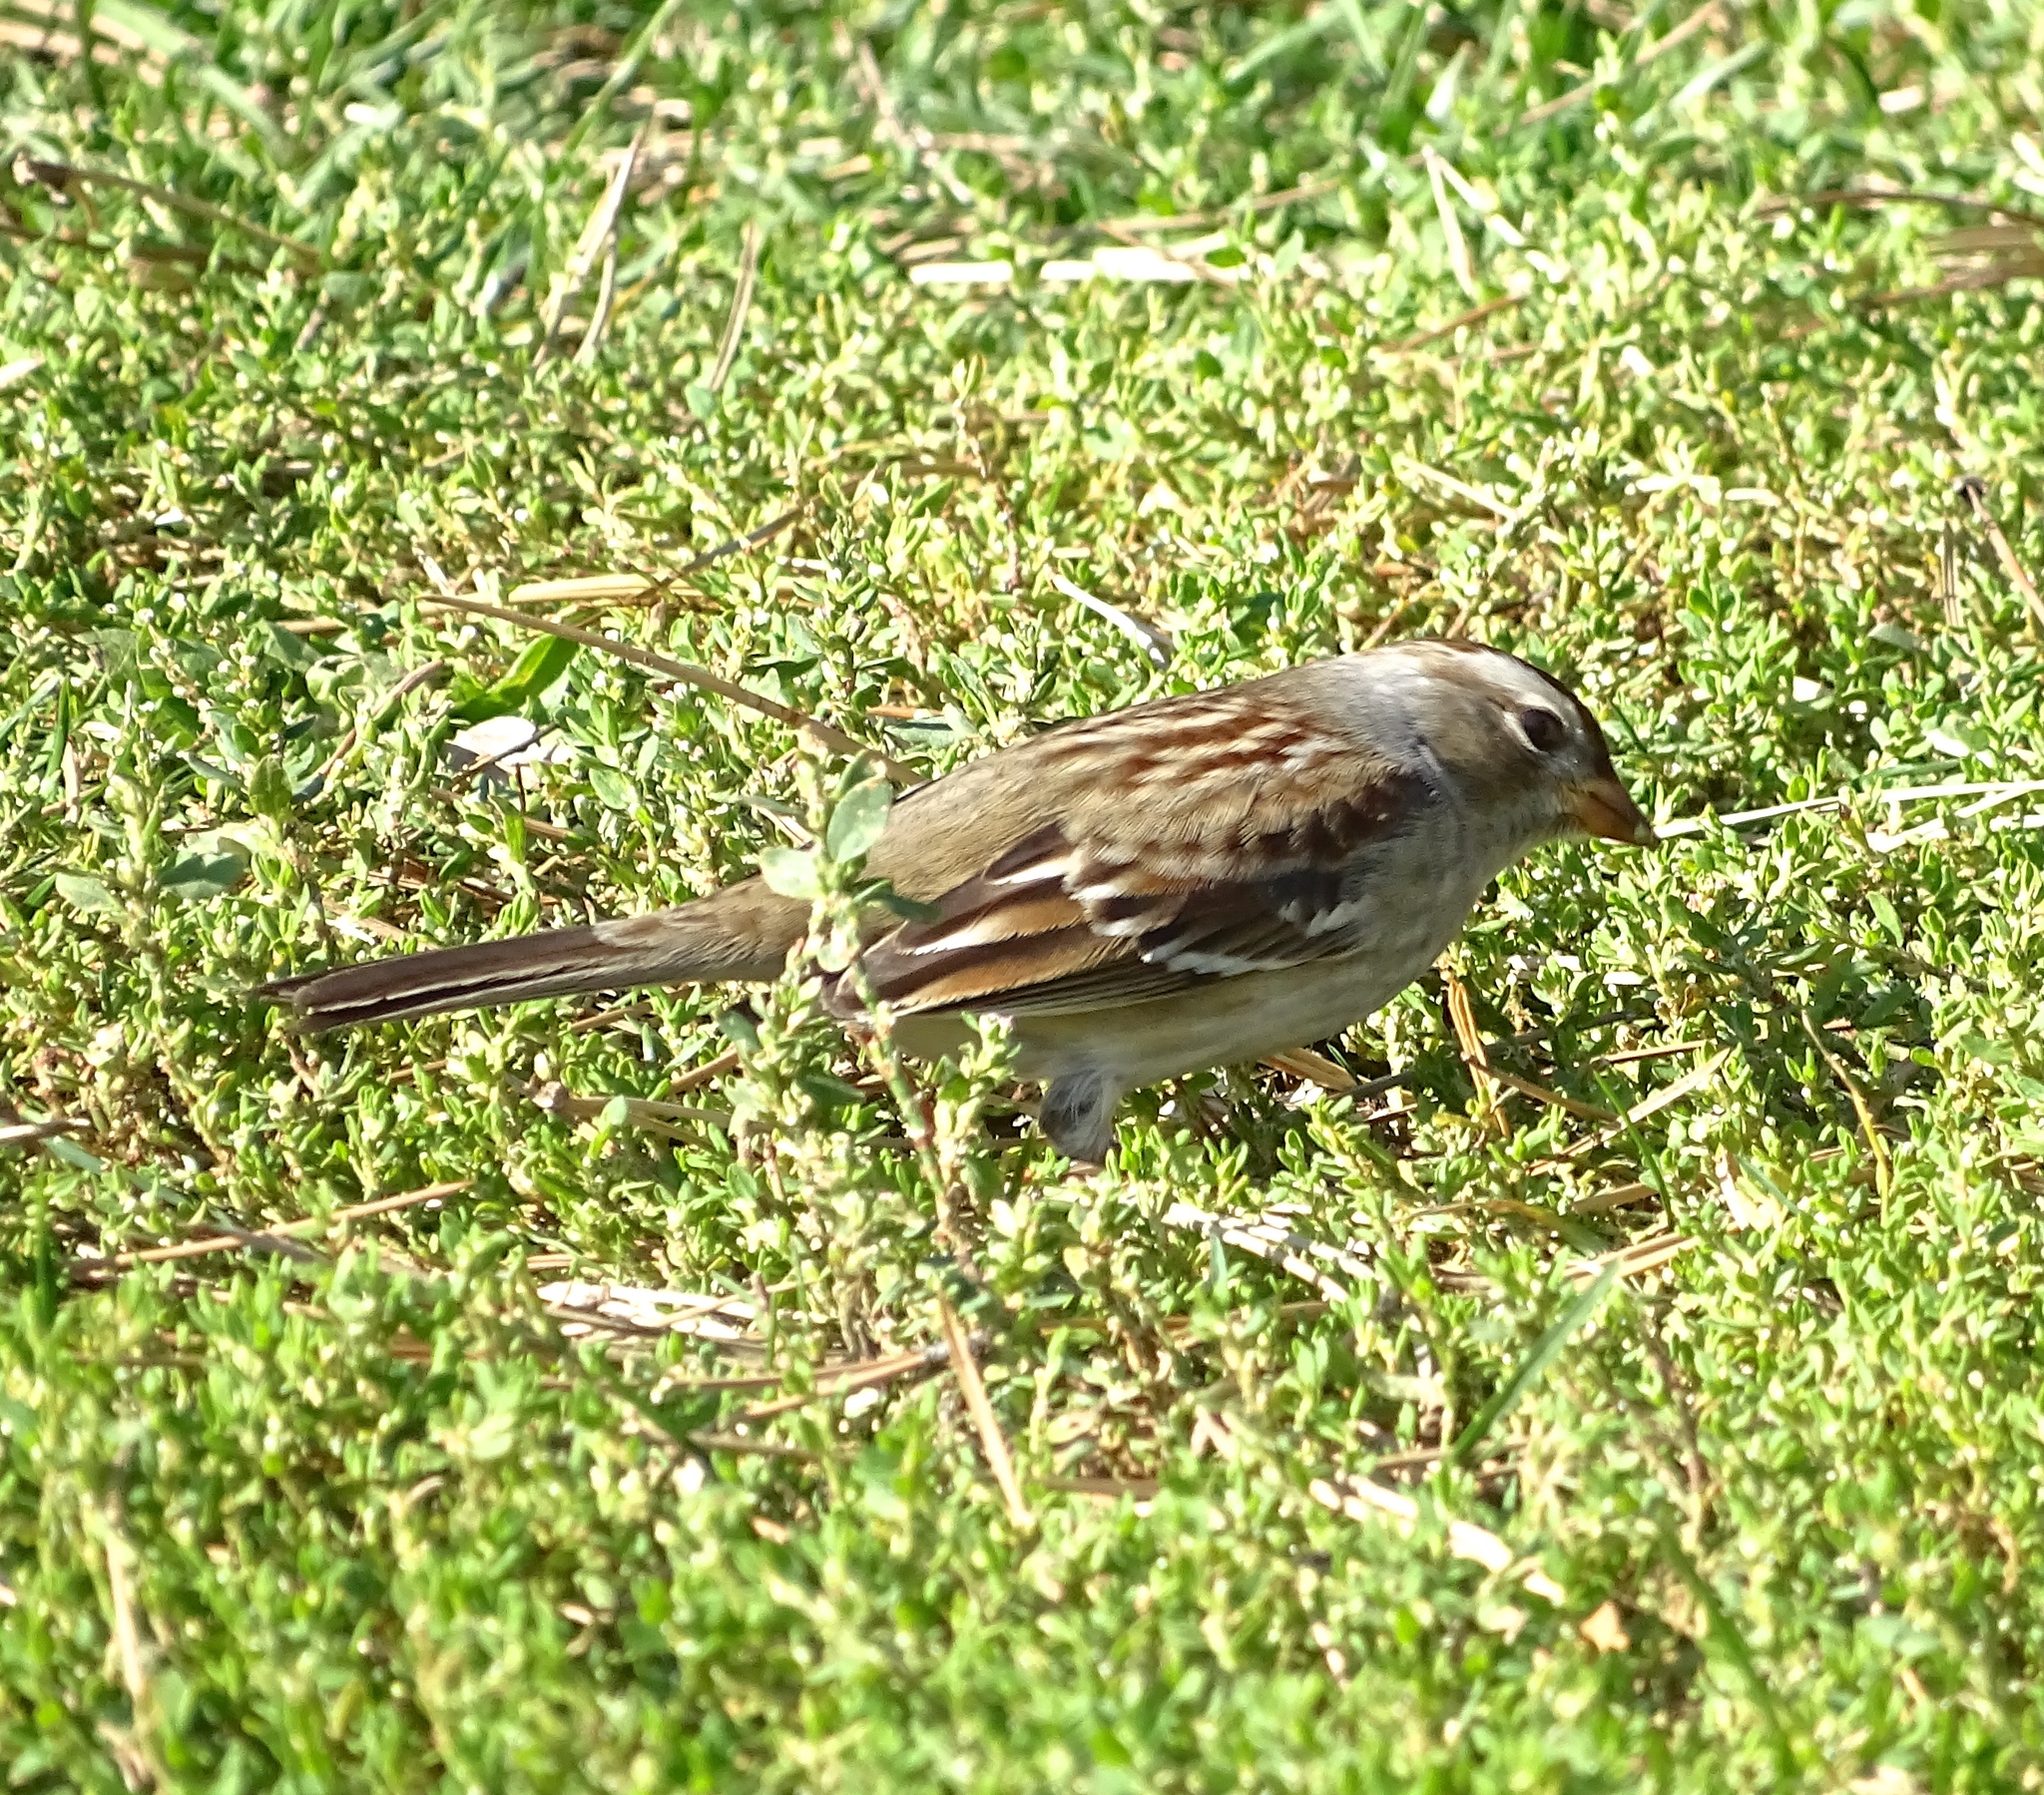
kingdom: Animalia
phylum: Chordata
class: Aves
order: Passeriformes
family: Passerellidae
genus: Zonotrichia
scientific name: Zonotrichia leucophrys
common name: White-crowned sparrow
